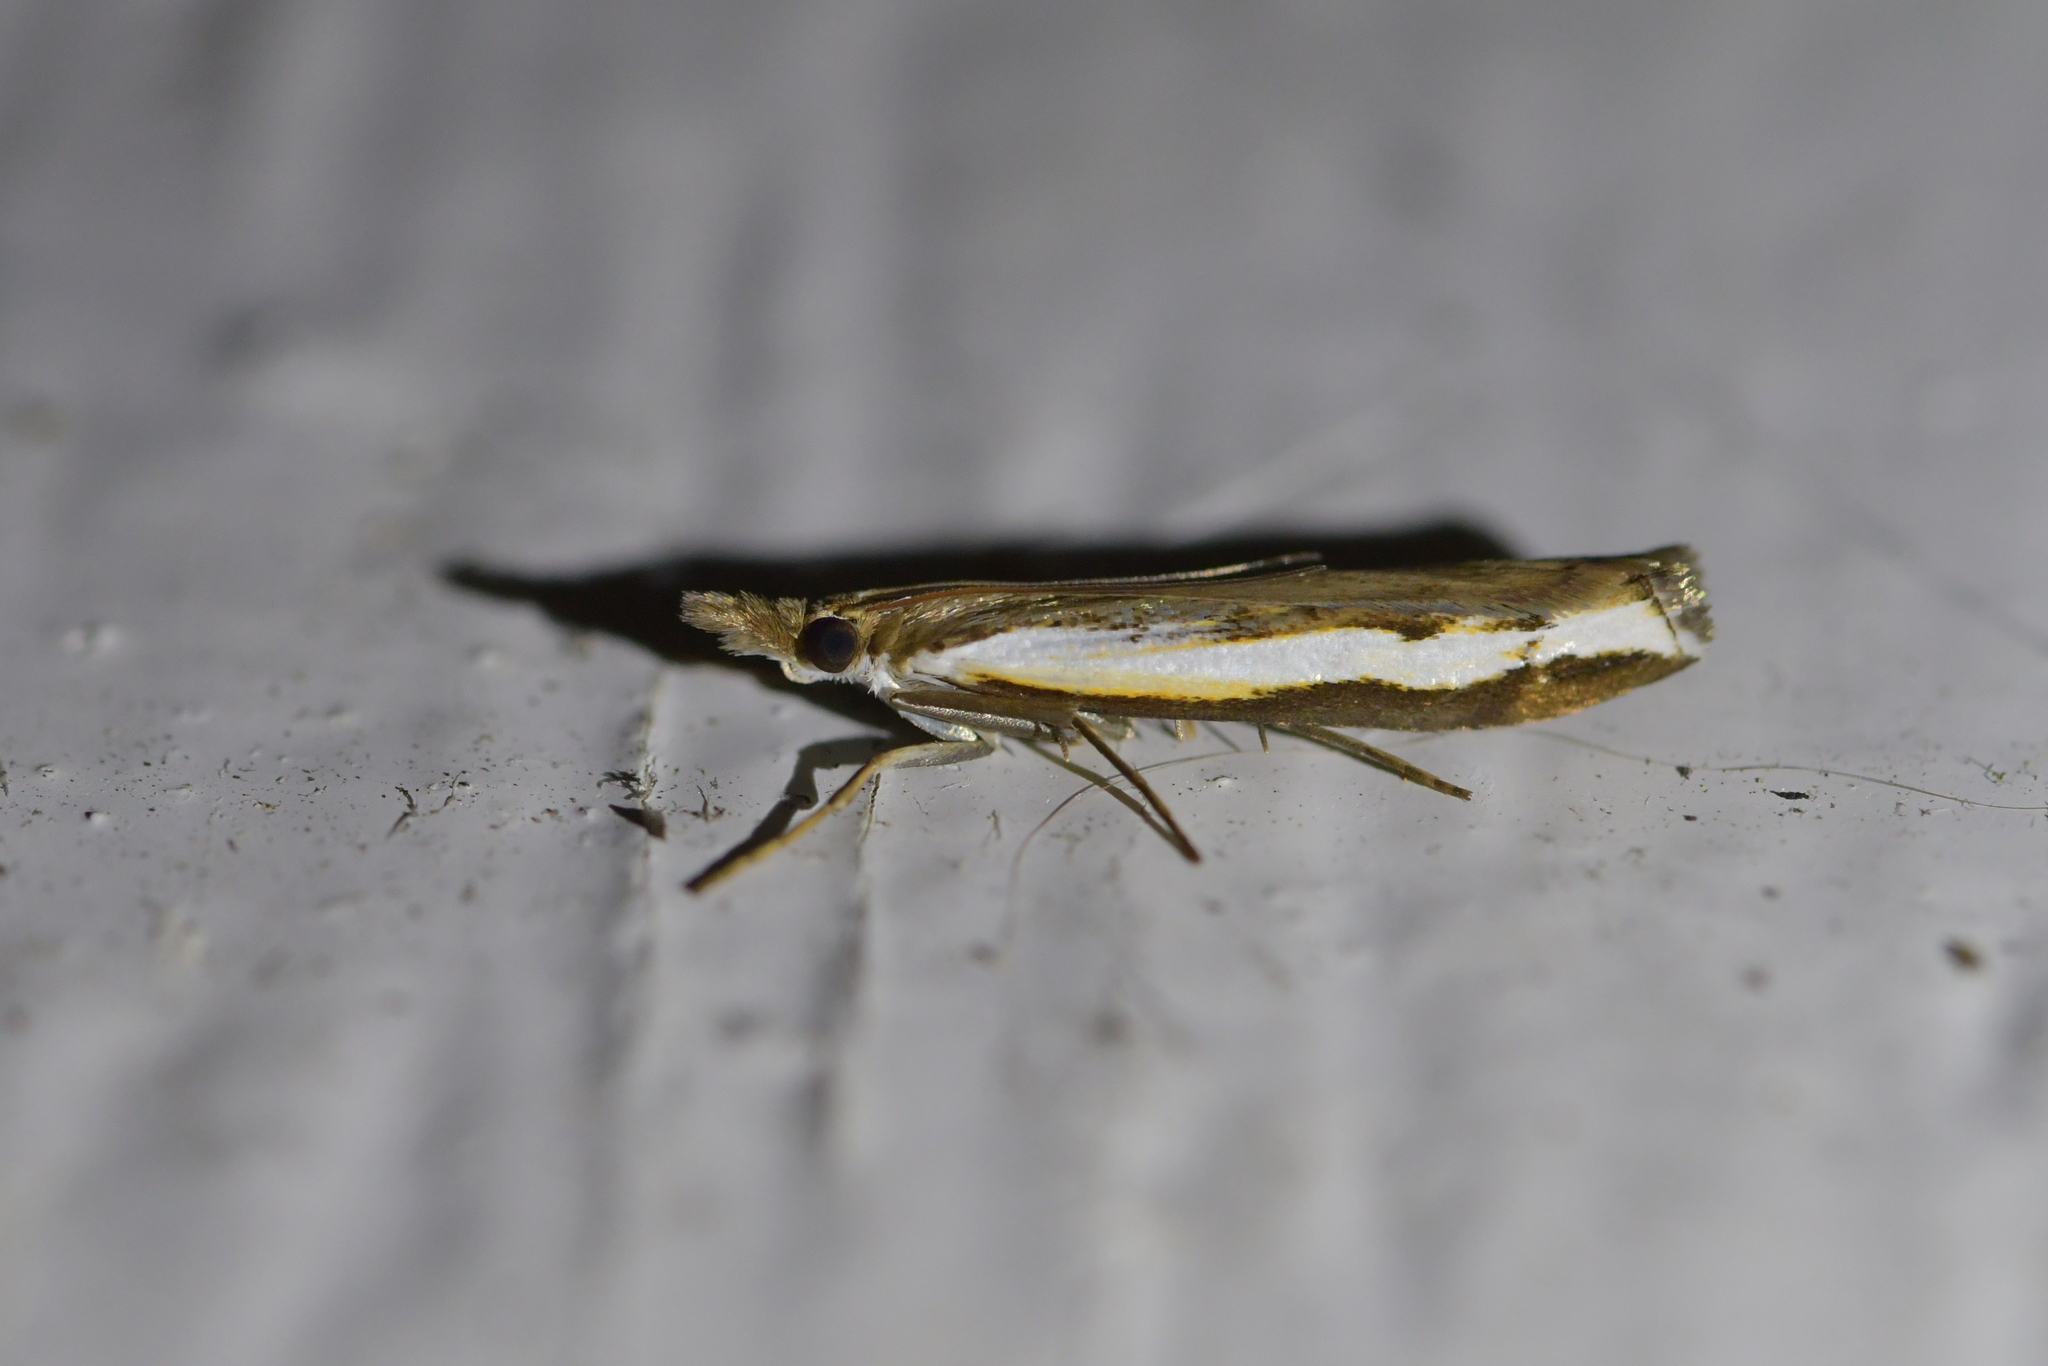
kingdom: Animalia
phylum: Arthropoda
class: Insecta
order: Lepidoptera
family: Crambidae
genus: Orocrambus
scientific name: Orocrambus flexuosellus
